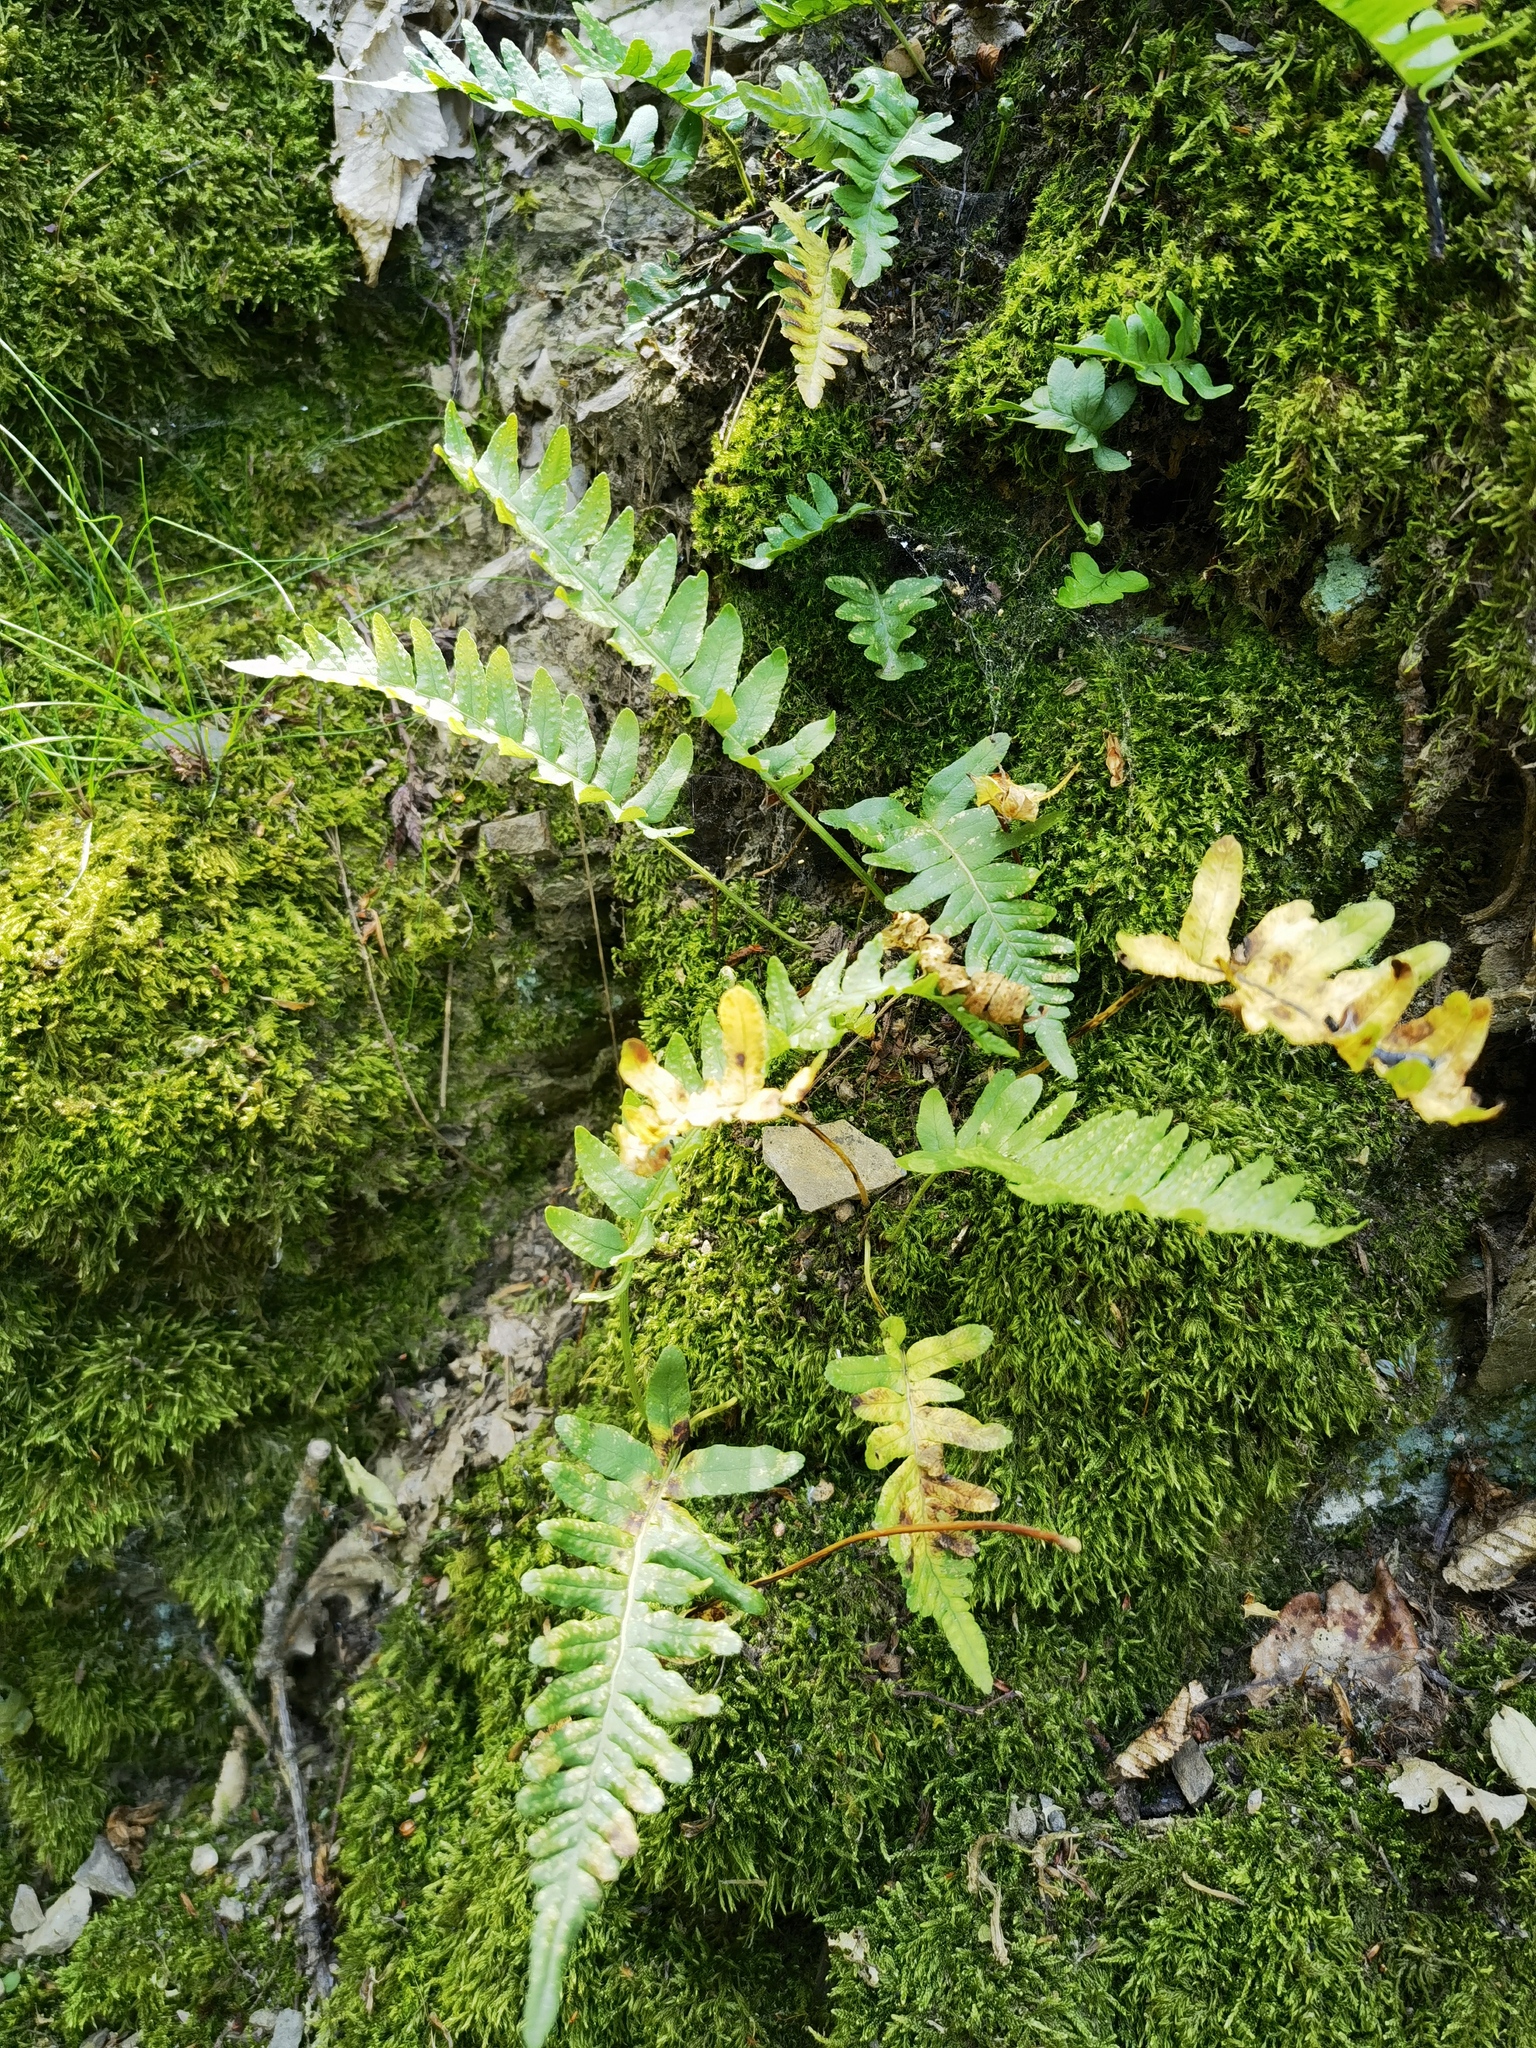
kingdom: Plantae
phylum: Tracheophyta
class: Polypodiopsida
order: Polypodiales
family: Polypodiaceae
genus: Polypodium
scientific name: Polypodium vulgare
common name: Common polypody
